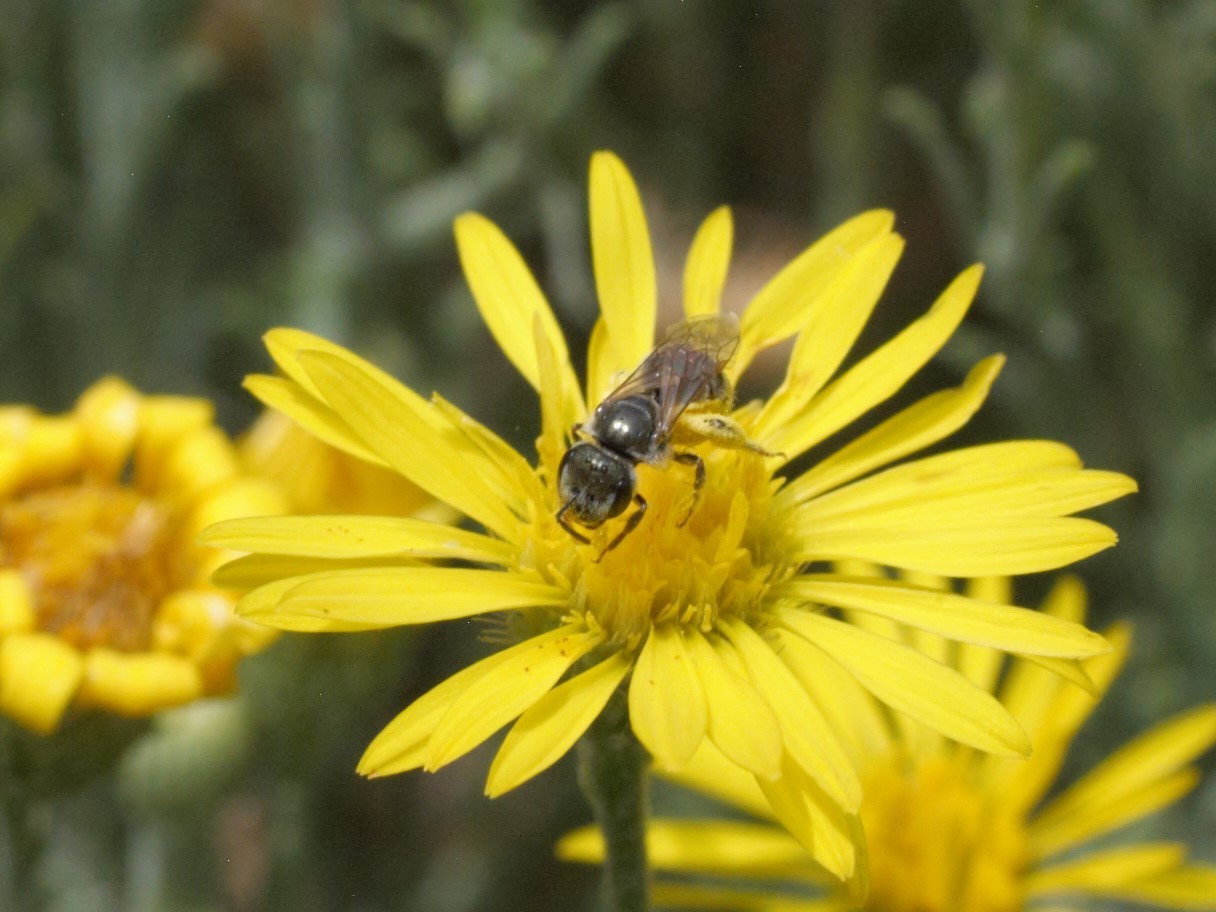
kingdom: Animalia
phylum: Arthropoda
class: Insecta
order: Hymenoptera
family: Halictidae
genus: Halictus
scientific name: Halictus tripartitus
